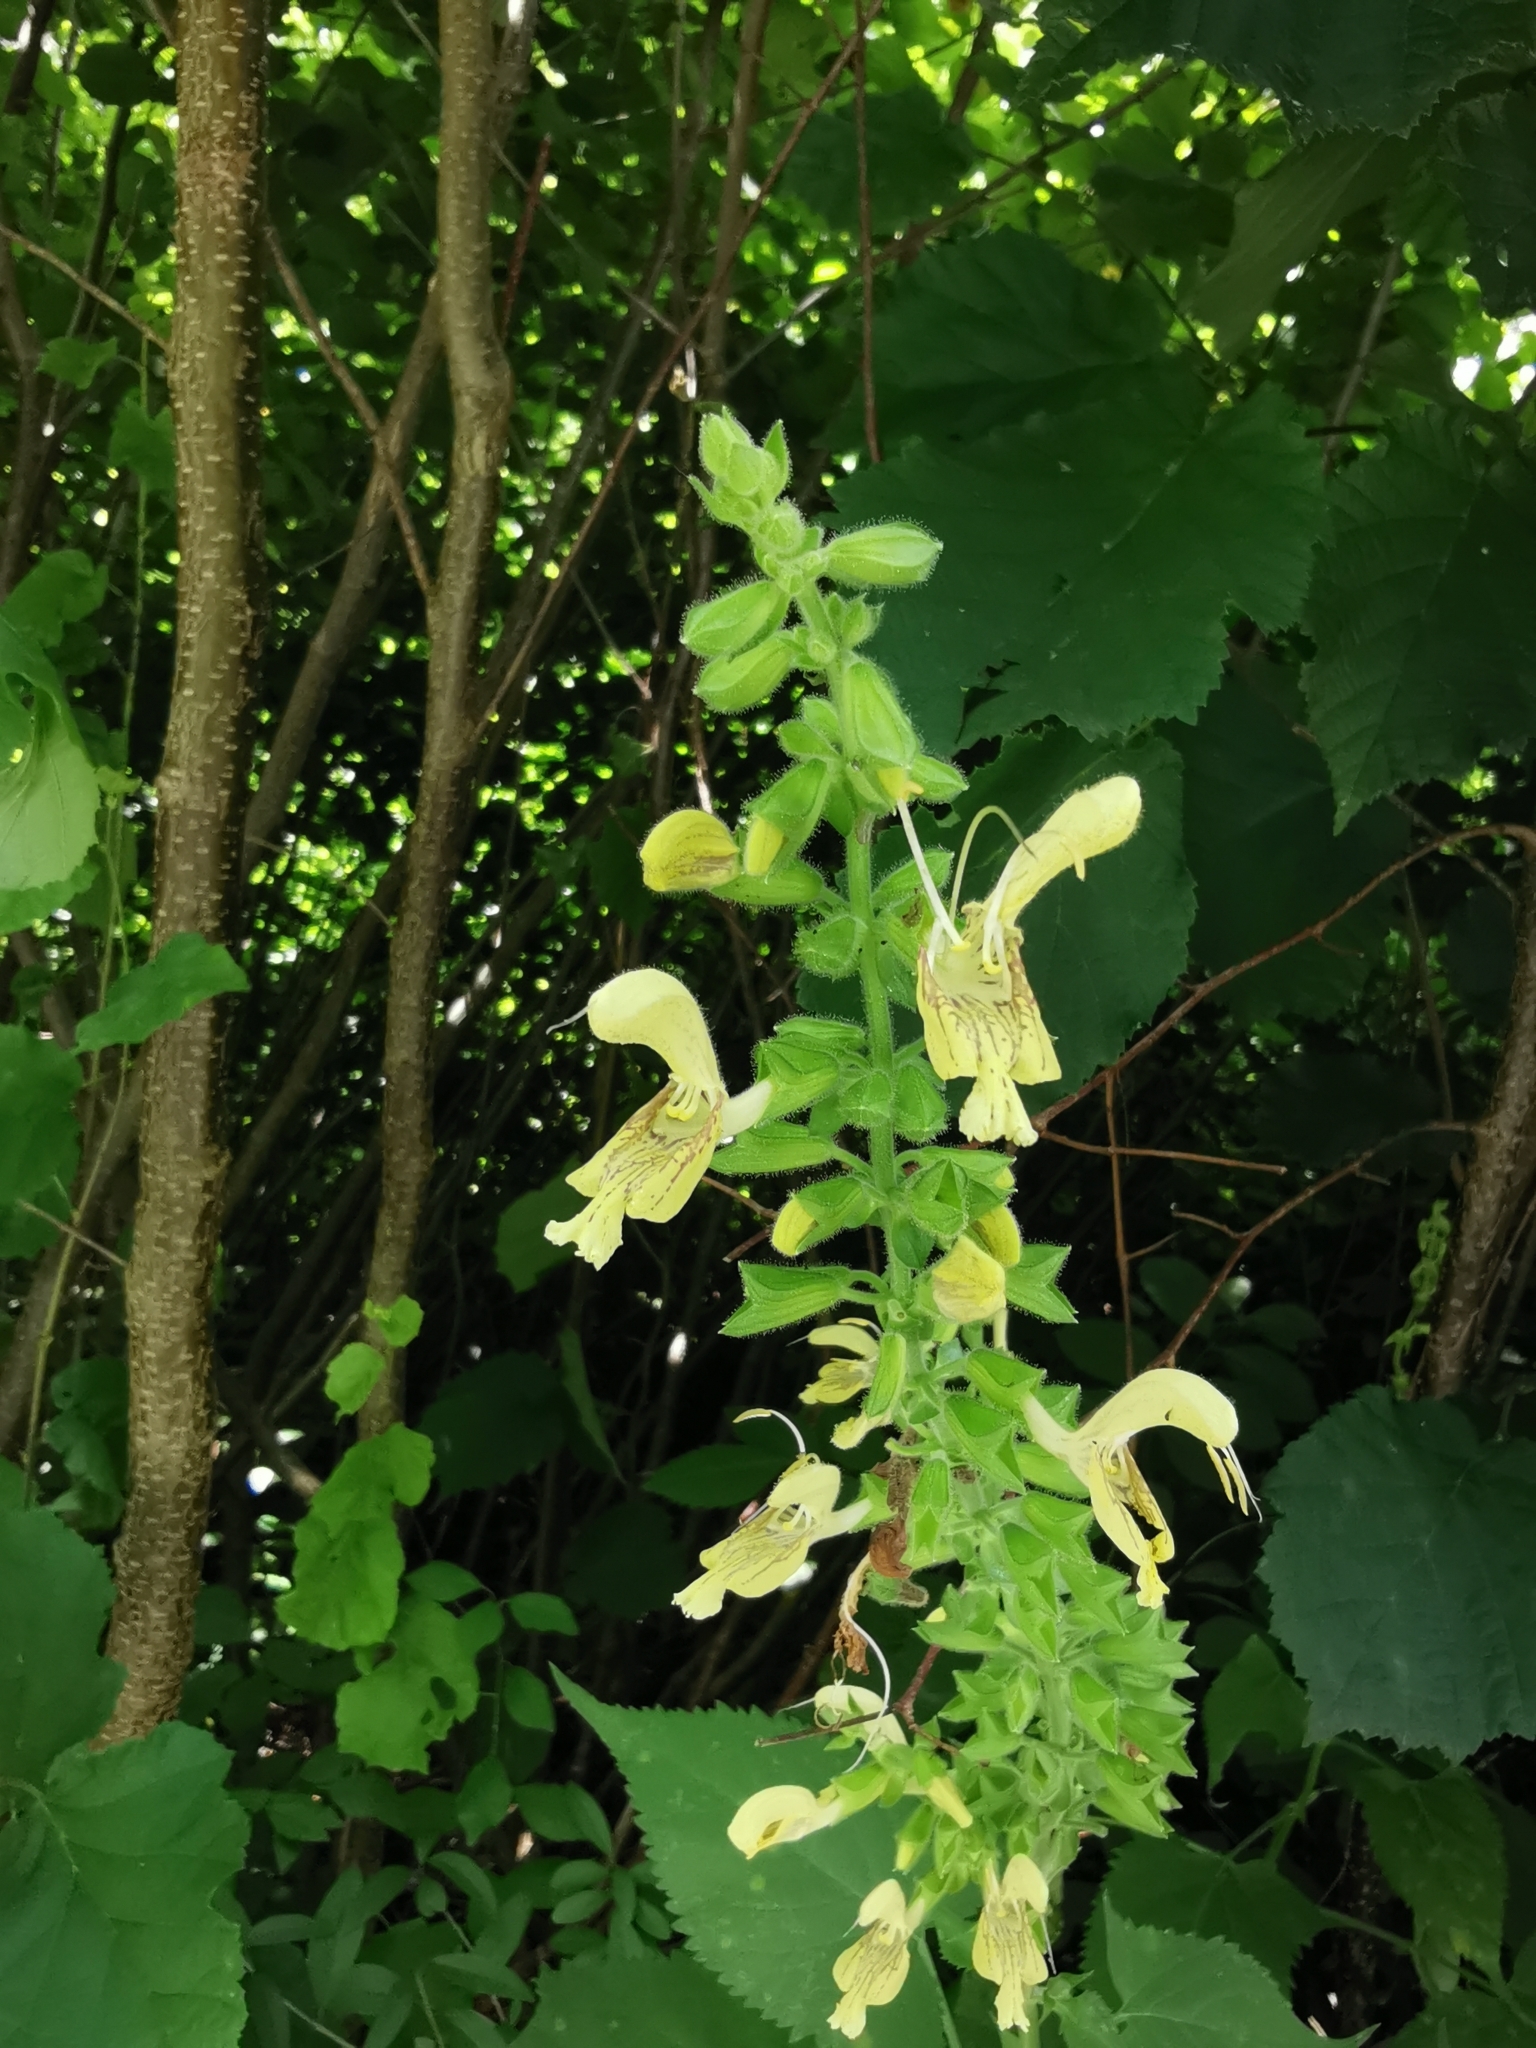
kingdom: Plantae
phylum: Tracheophyta
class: Magnoliopsida
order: Lamiales
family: Lamiaceae
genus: Salvia
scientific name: Salvia glutinosa
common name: Sticky clary
